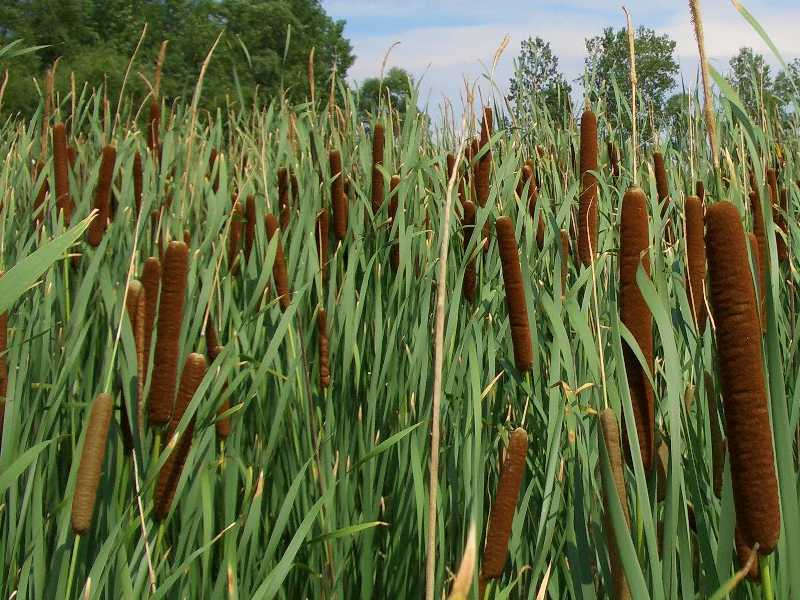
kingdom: Plantae
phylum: Tracheophyta
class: Liliopsida
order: Poales
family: Typhaceae
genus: Typha
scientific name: Typha glauca
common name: Blue cattail
